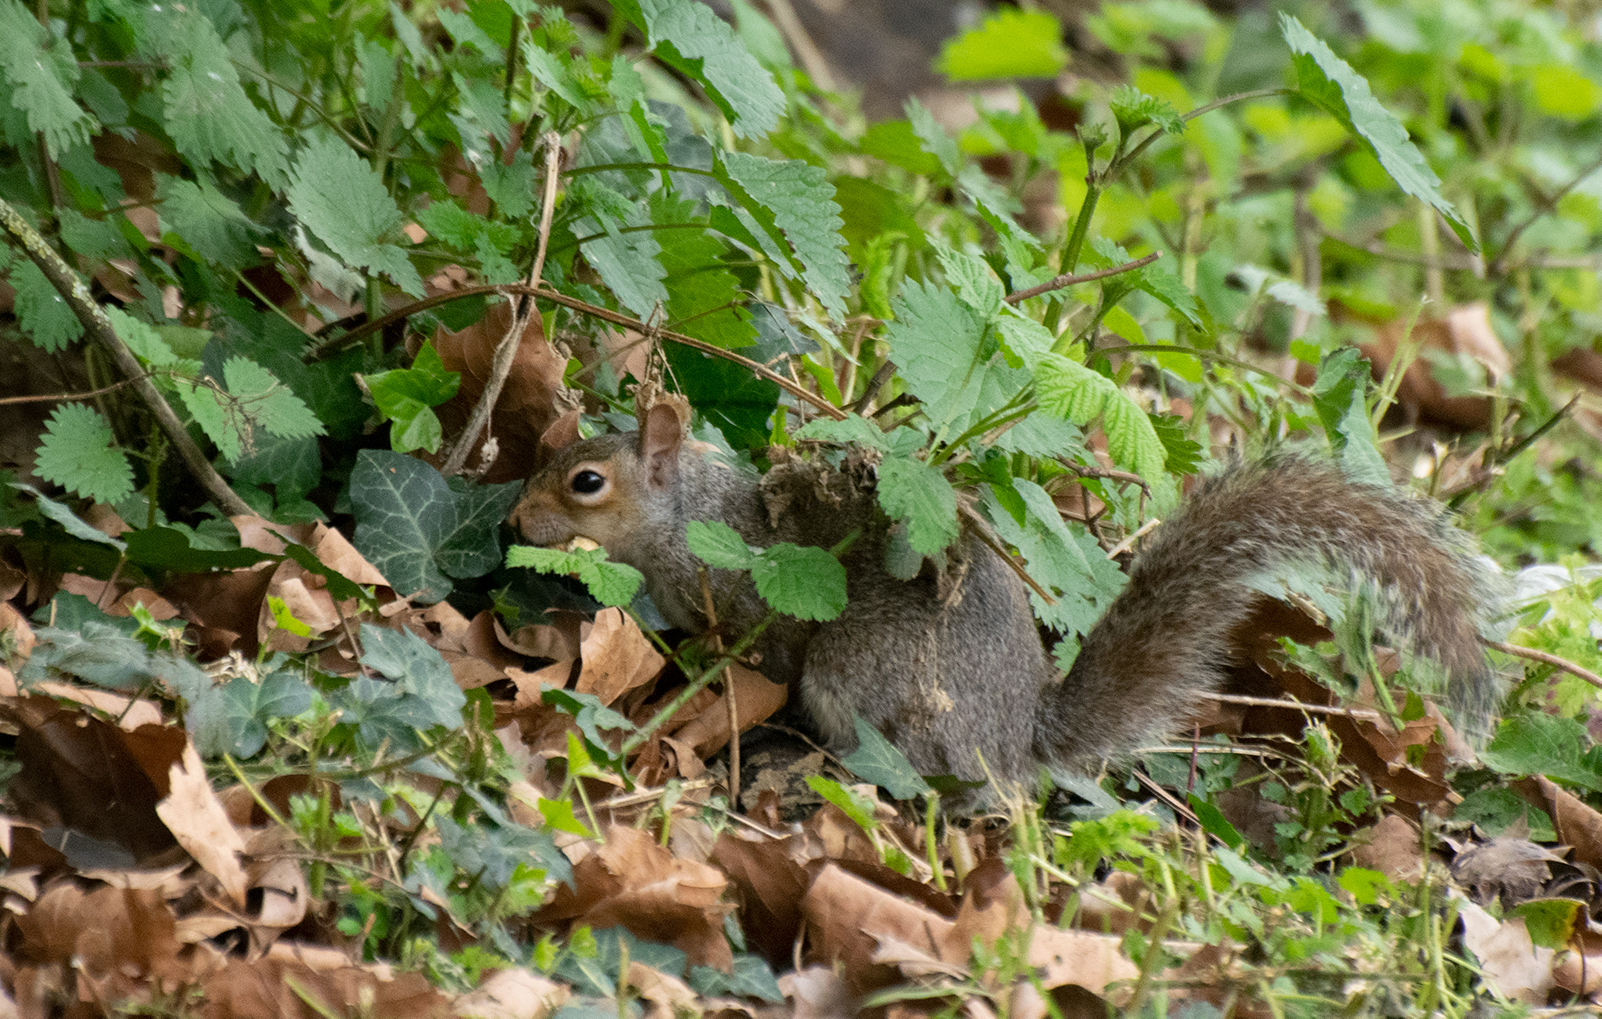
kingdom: Animalia
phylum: Chordata
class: Mammalia
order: Rodentia
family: Sciuridae
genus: Sciurus
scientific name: Sciurus carolinensis
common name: Eastern gray squirrel
